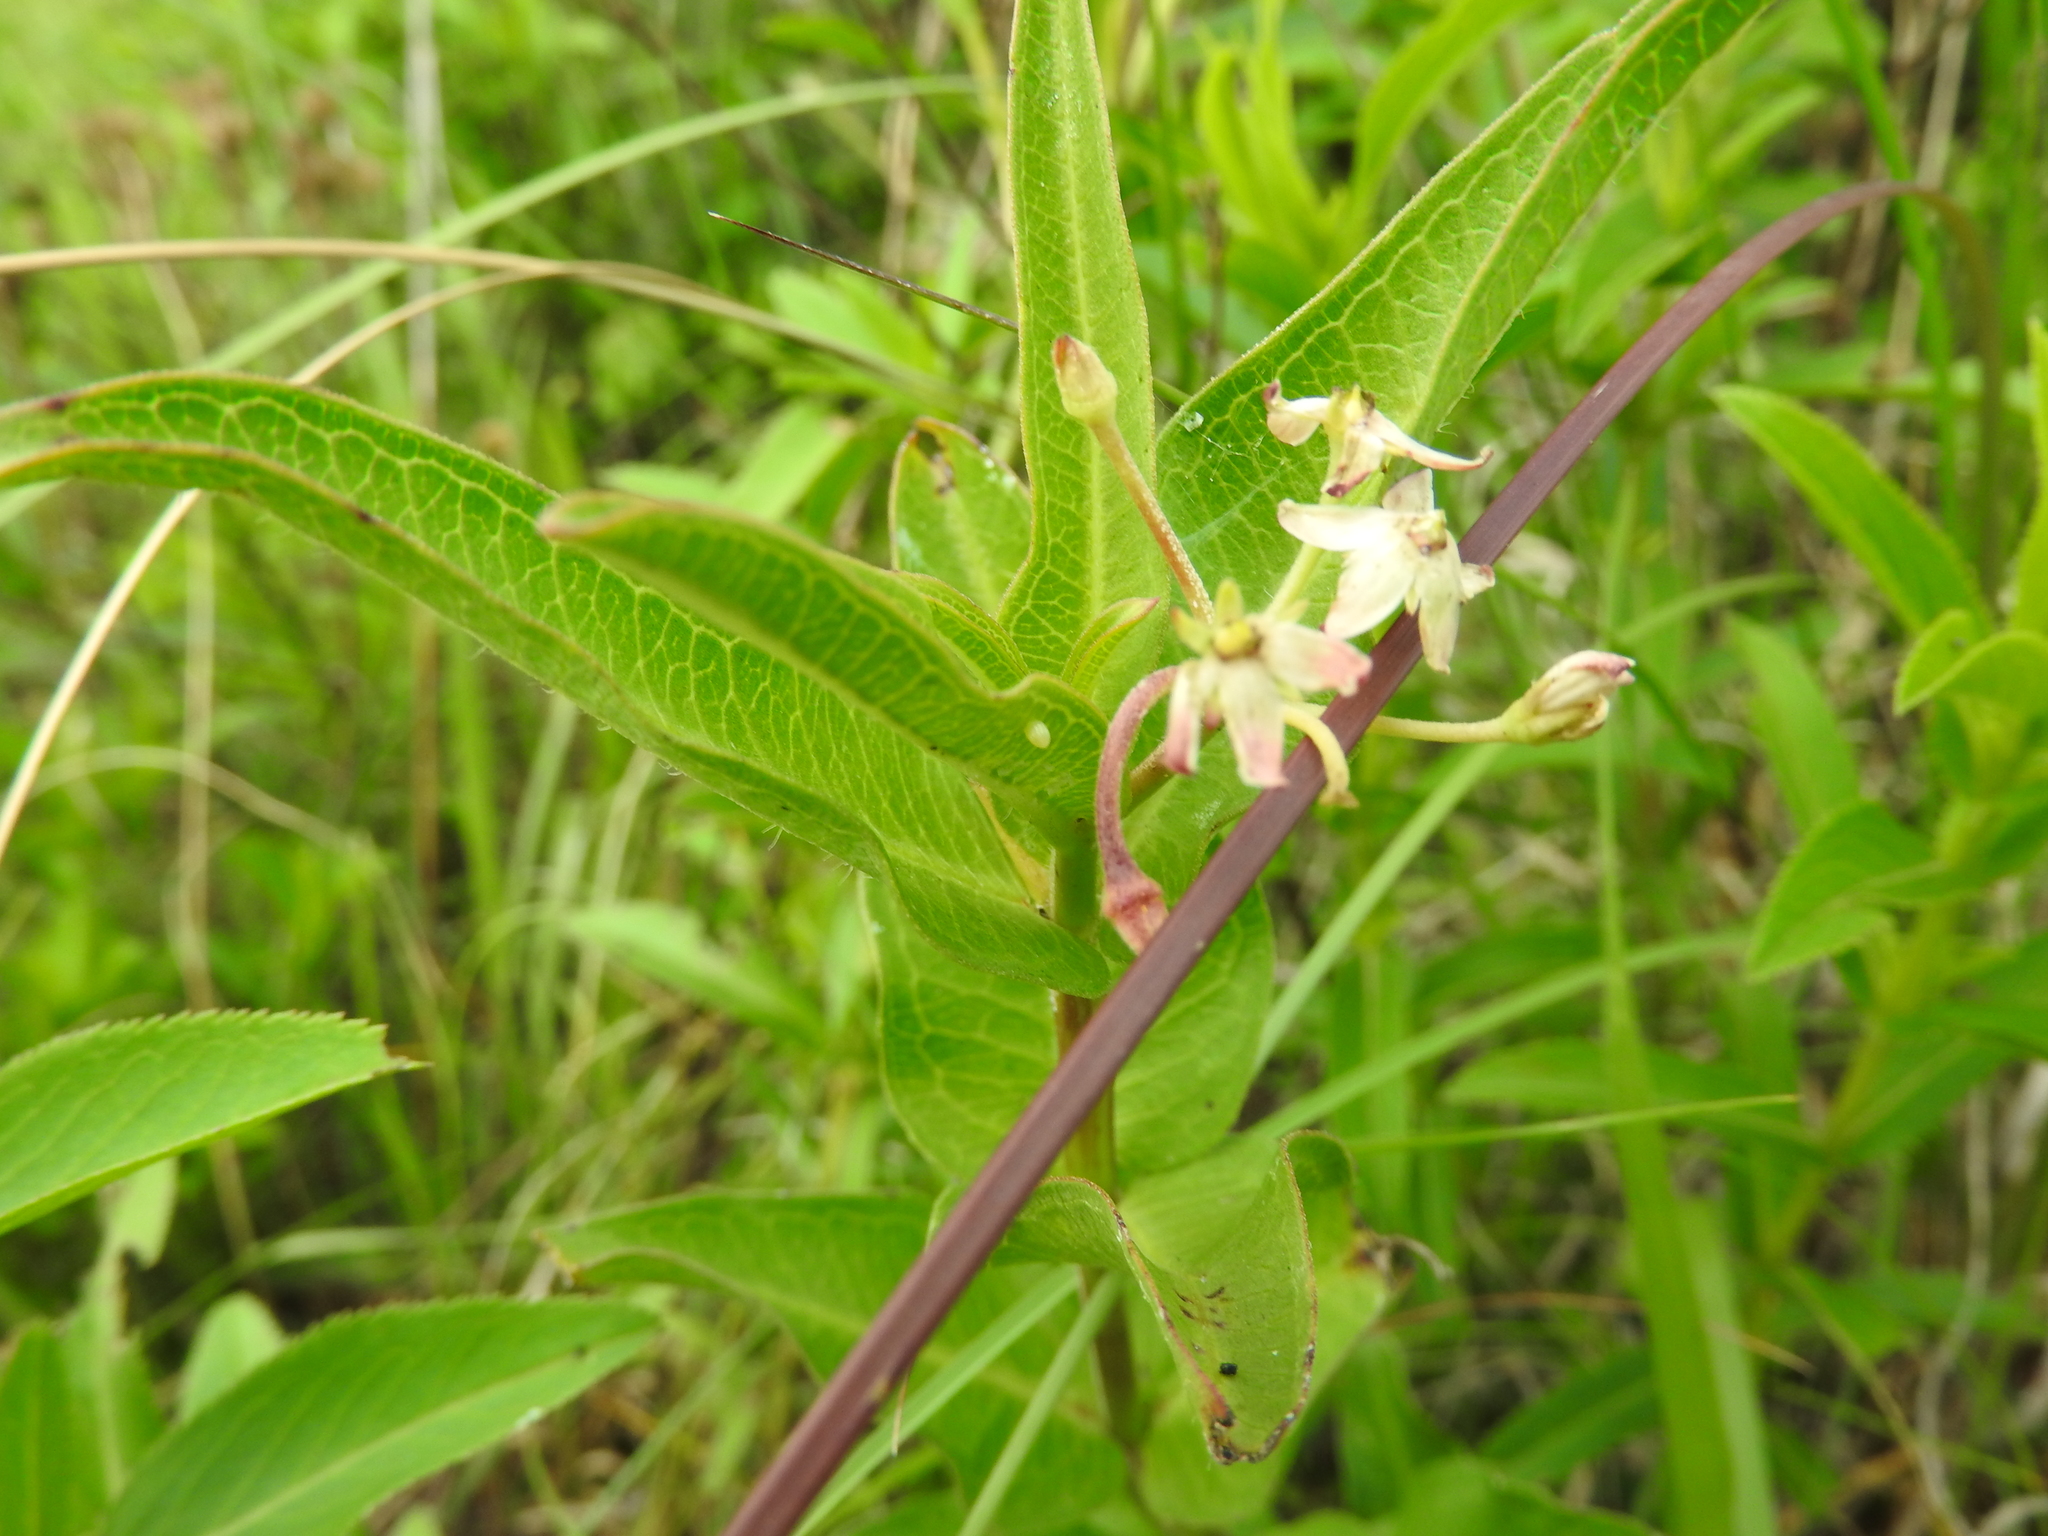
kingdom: Animalia
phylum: Arthropoda
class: Insecta
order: Lepidoptera
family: Nymphalidae
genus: Danaus
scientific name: Danaus plexippus
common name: Monarch
